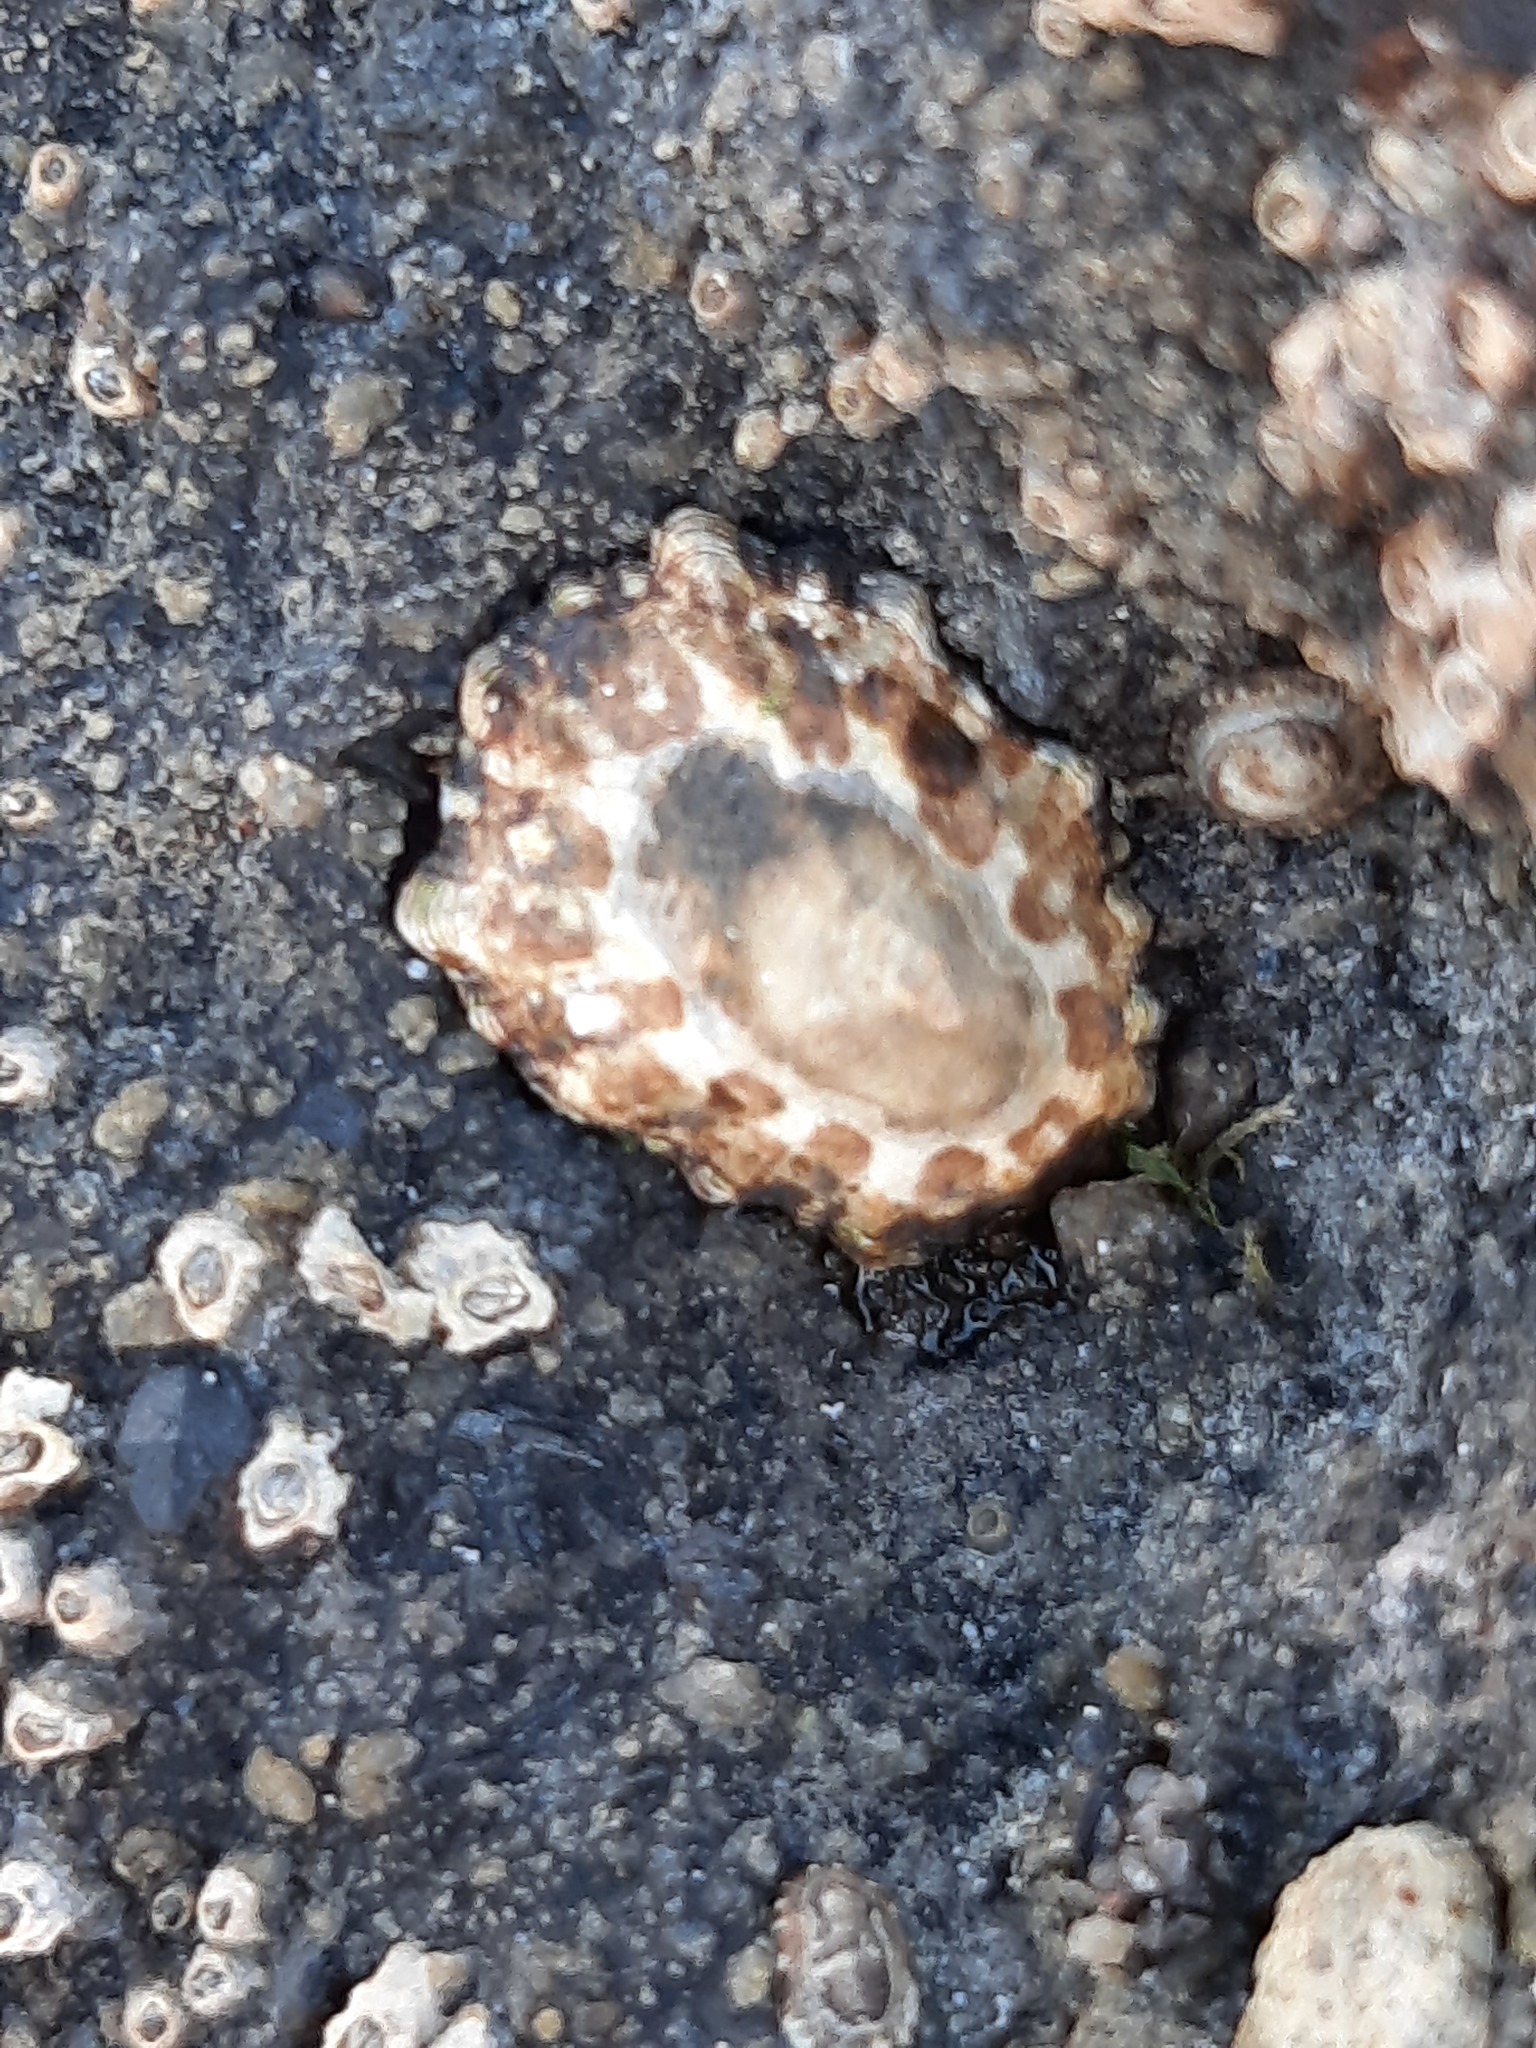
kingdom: Animalia
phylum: Mollusca
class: Gastropoda
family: Nacellidae
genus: Cellana
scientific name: Cellana ornata
